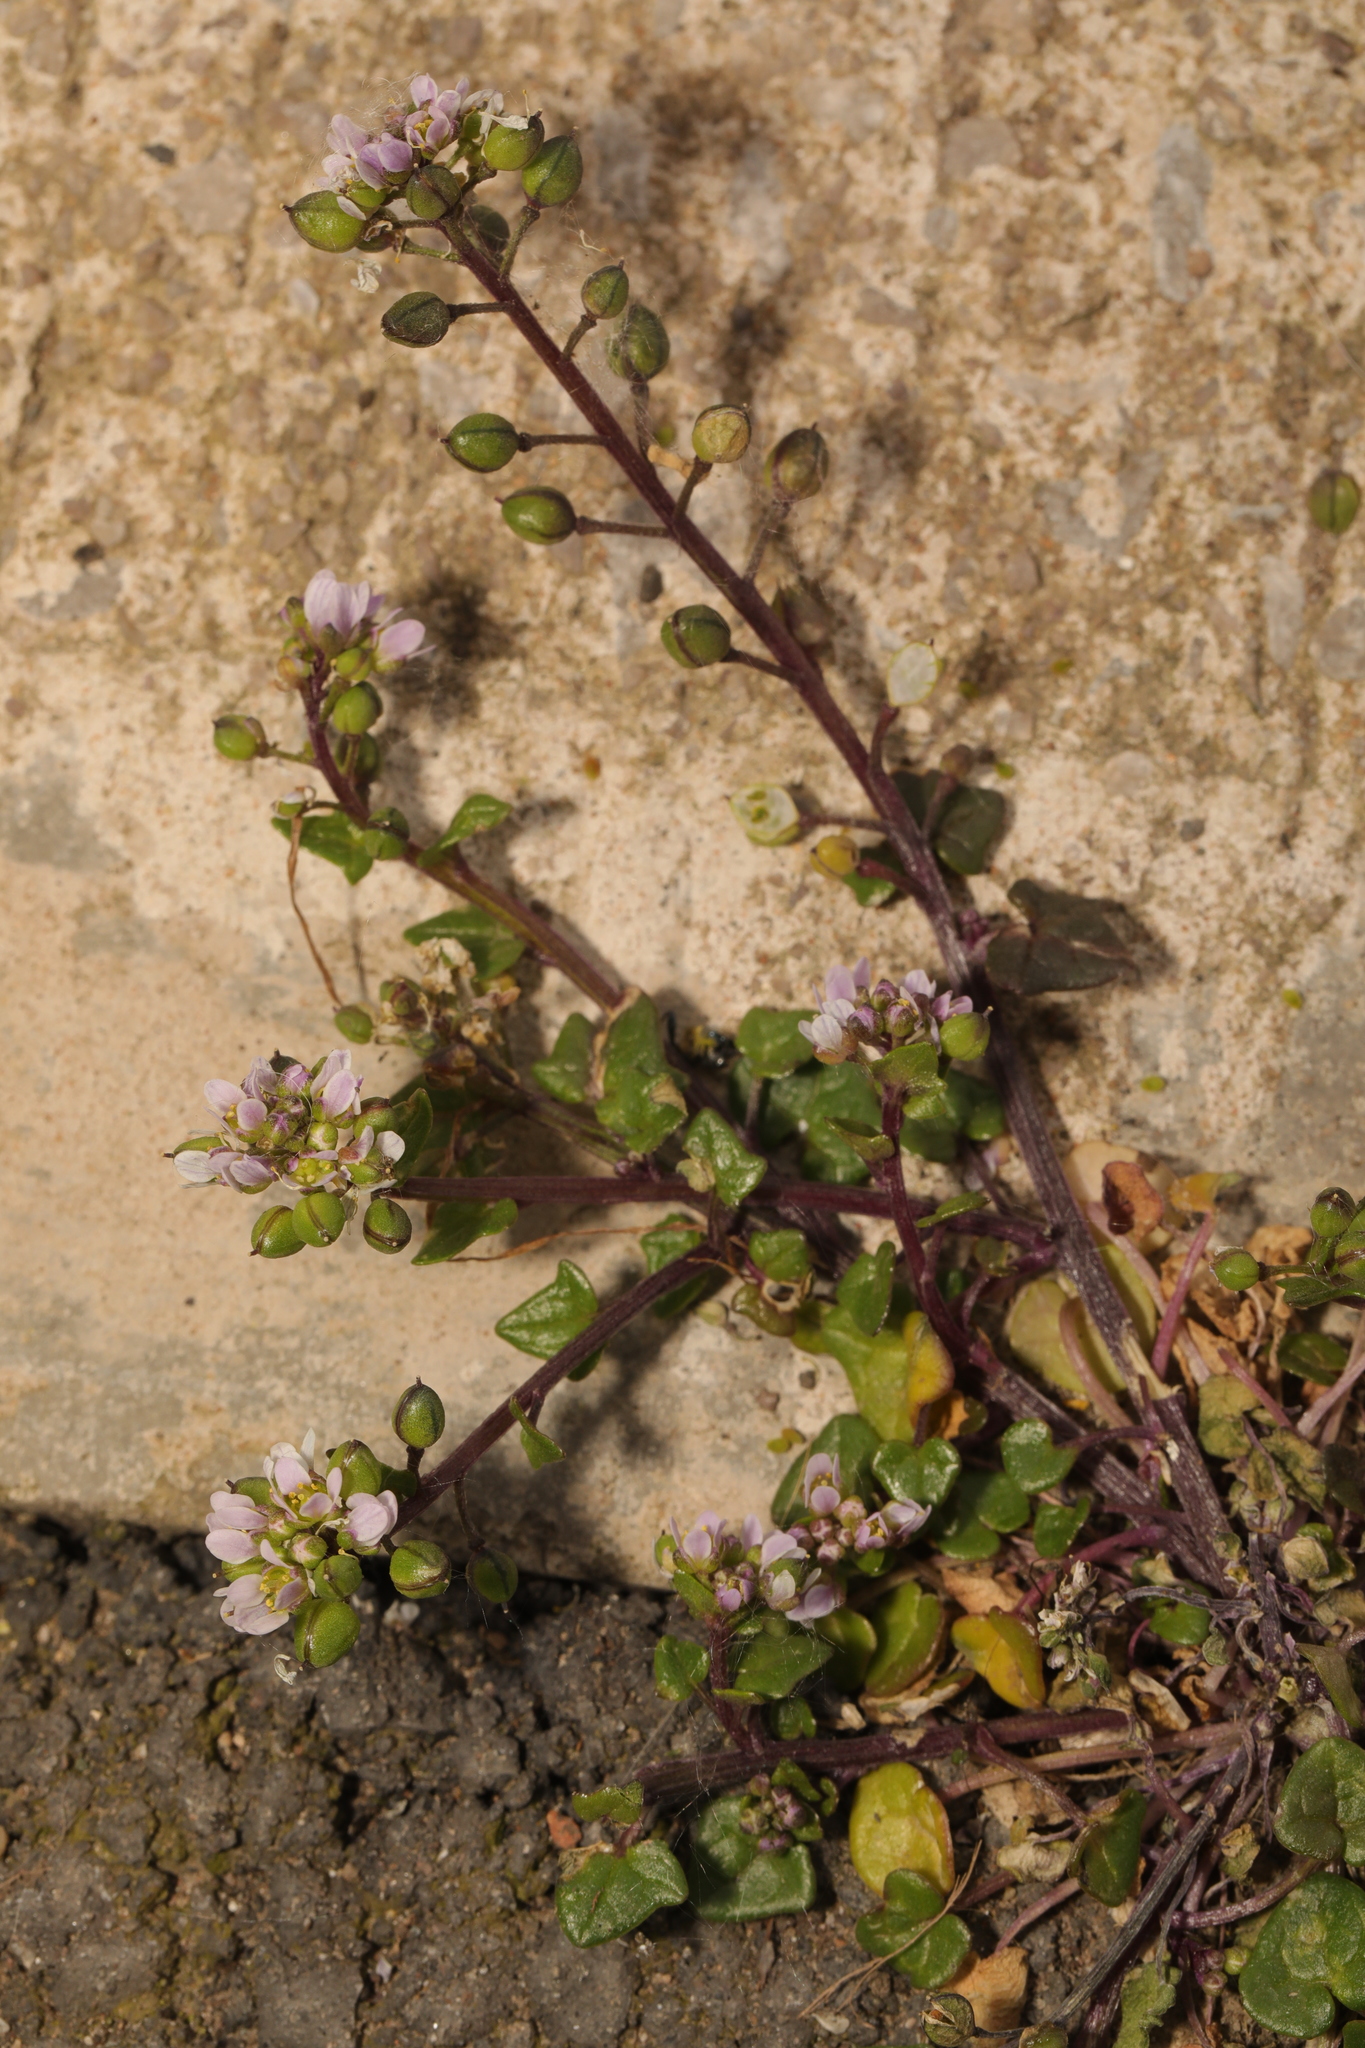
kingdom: Plantae
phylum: Tracheophyta
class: Magnoliopsida
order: Brassicales
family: Brassicaceae
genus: Cochlearia
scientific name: Cochlearia danica
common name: Early scurvygrass
